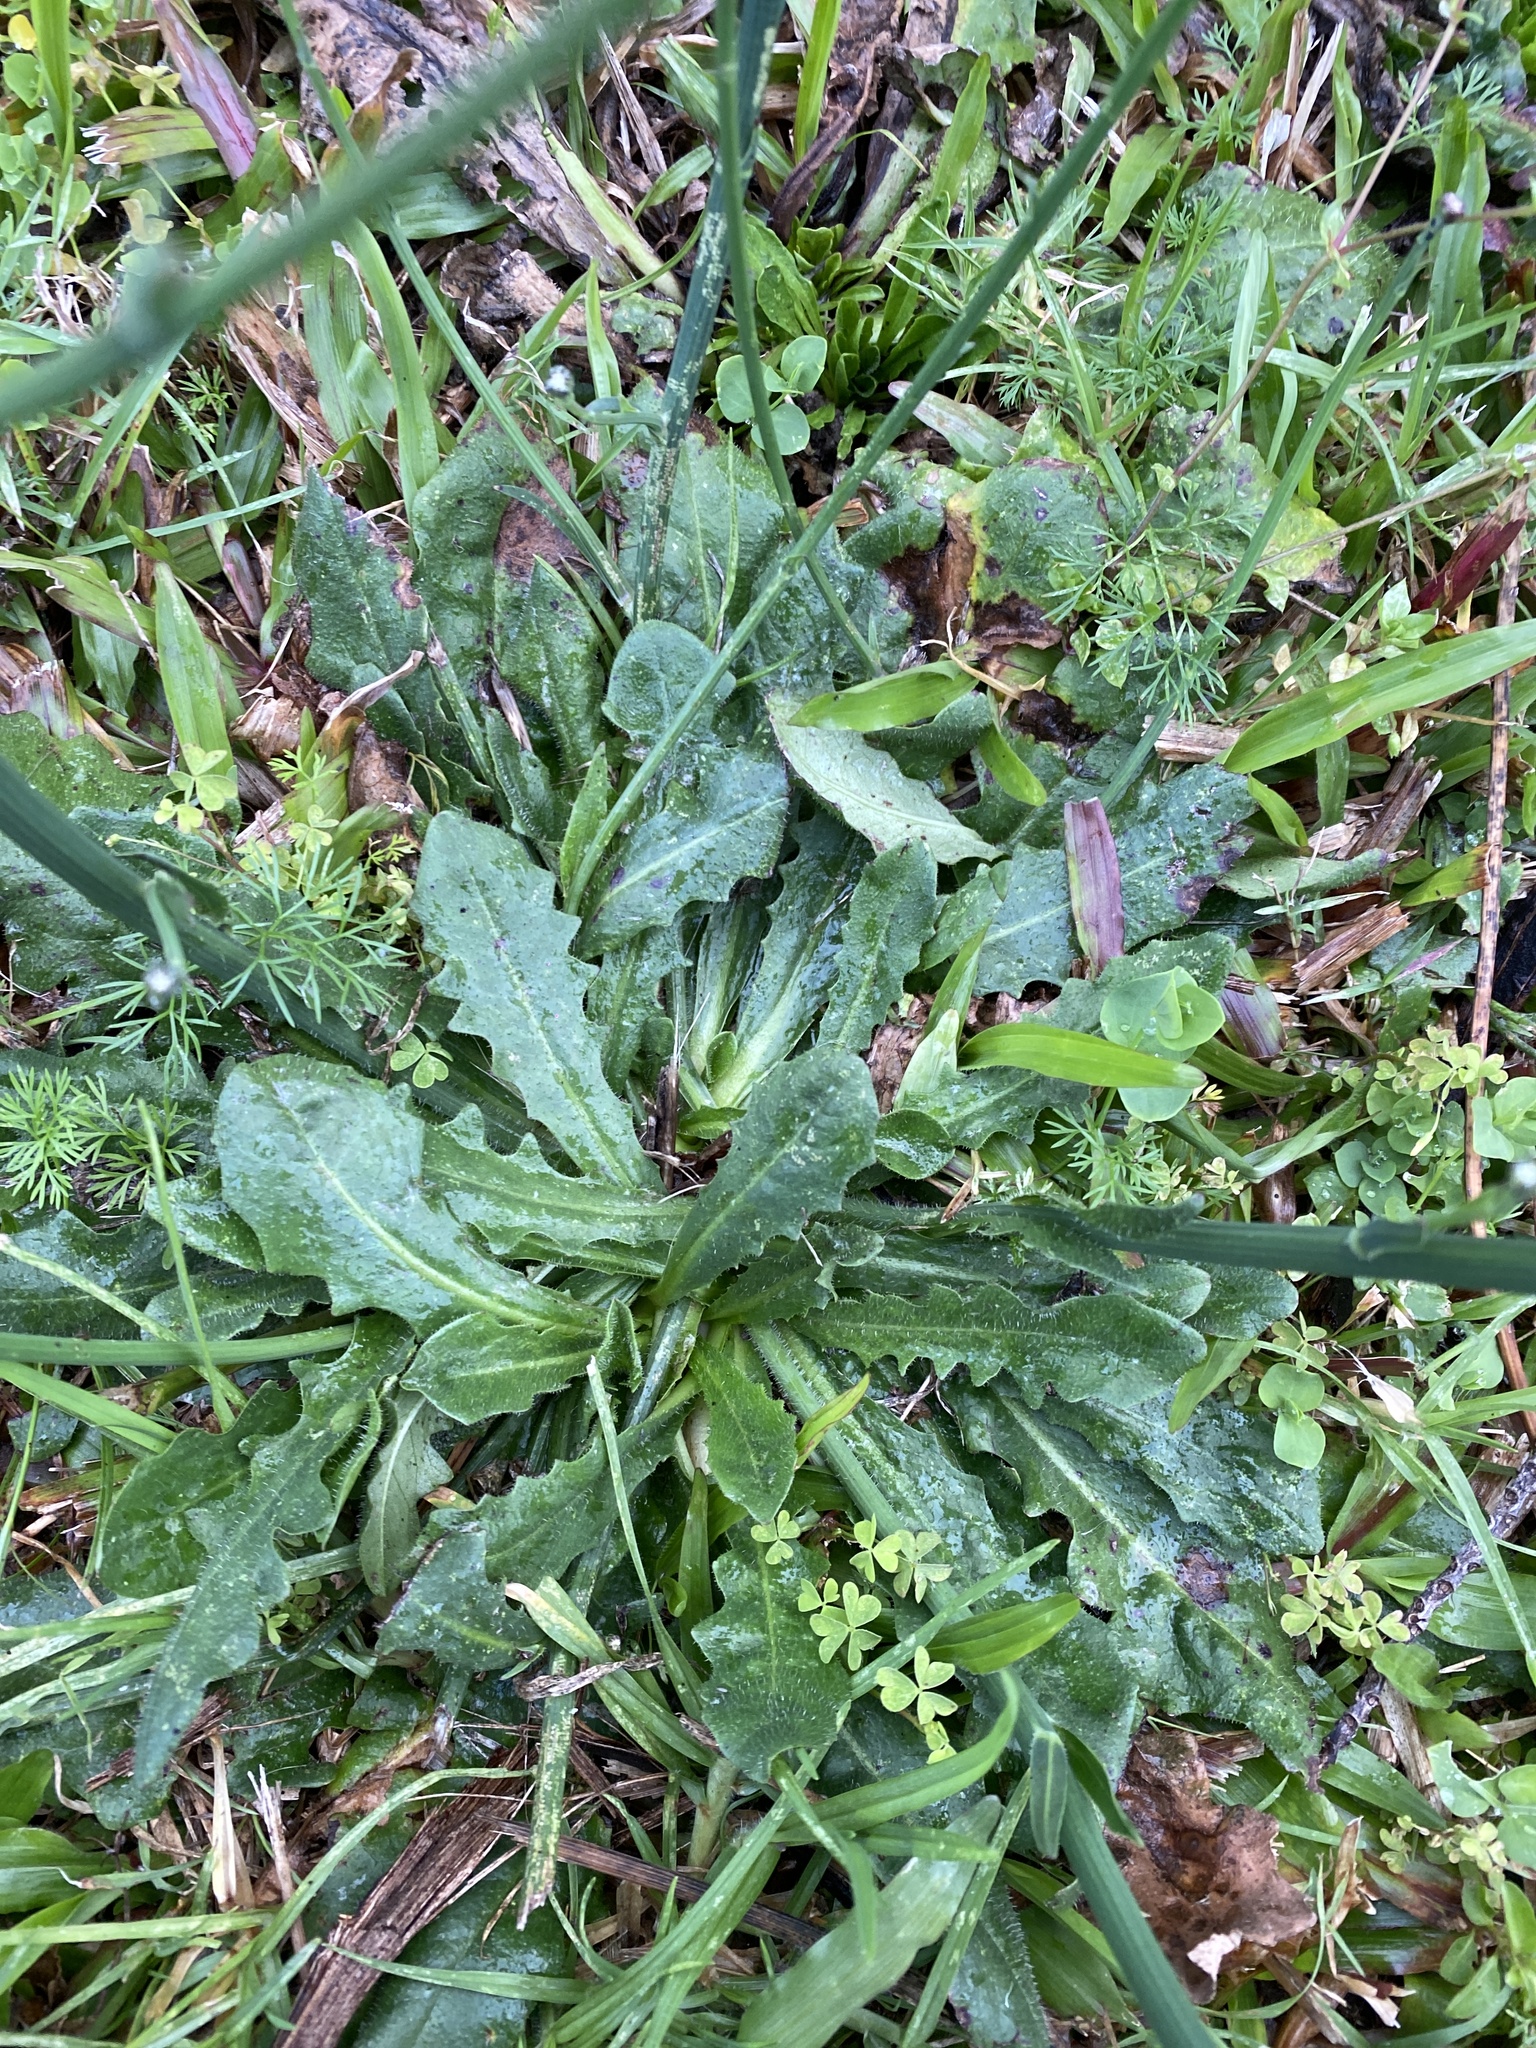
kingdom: Plantae
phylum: Tracheophyta
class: Magnoliopsida
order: Asterales
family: Asteraceae
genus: Hypochaeris
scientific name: Hypochaeris radicata
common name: Flatweed
